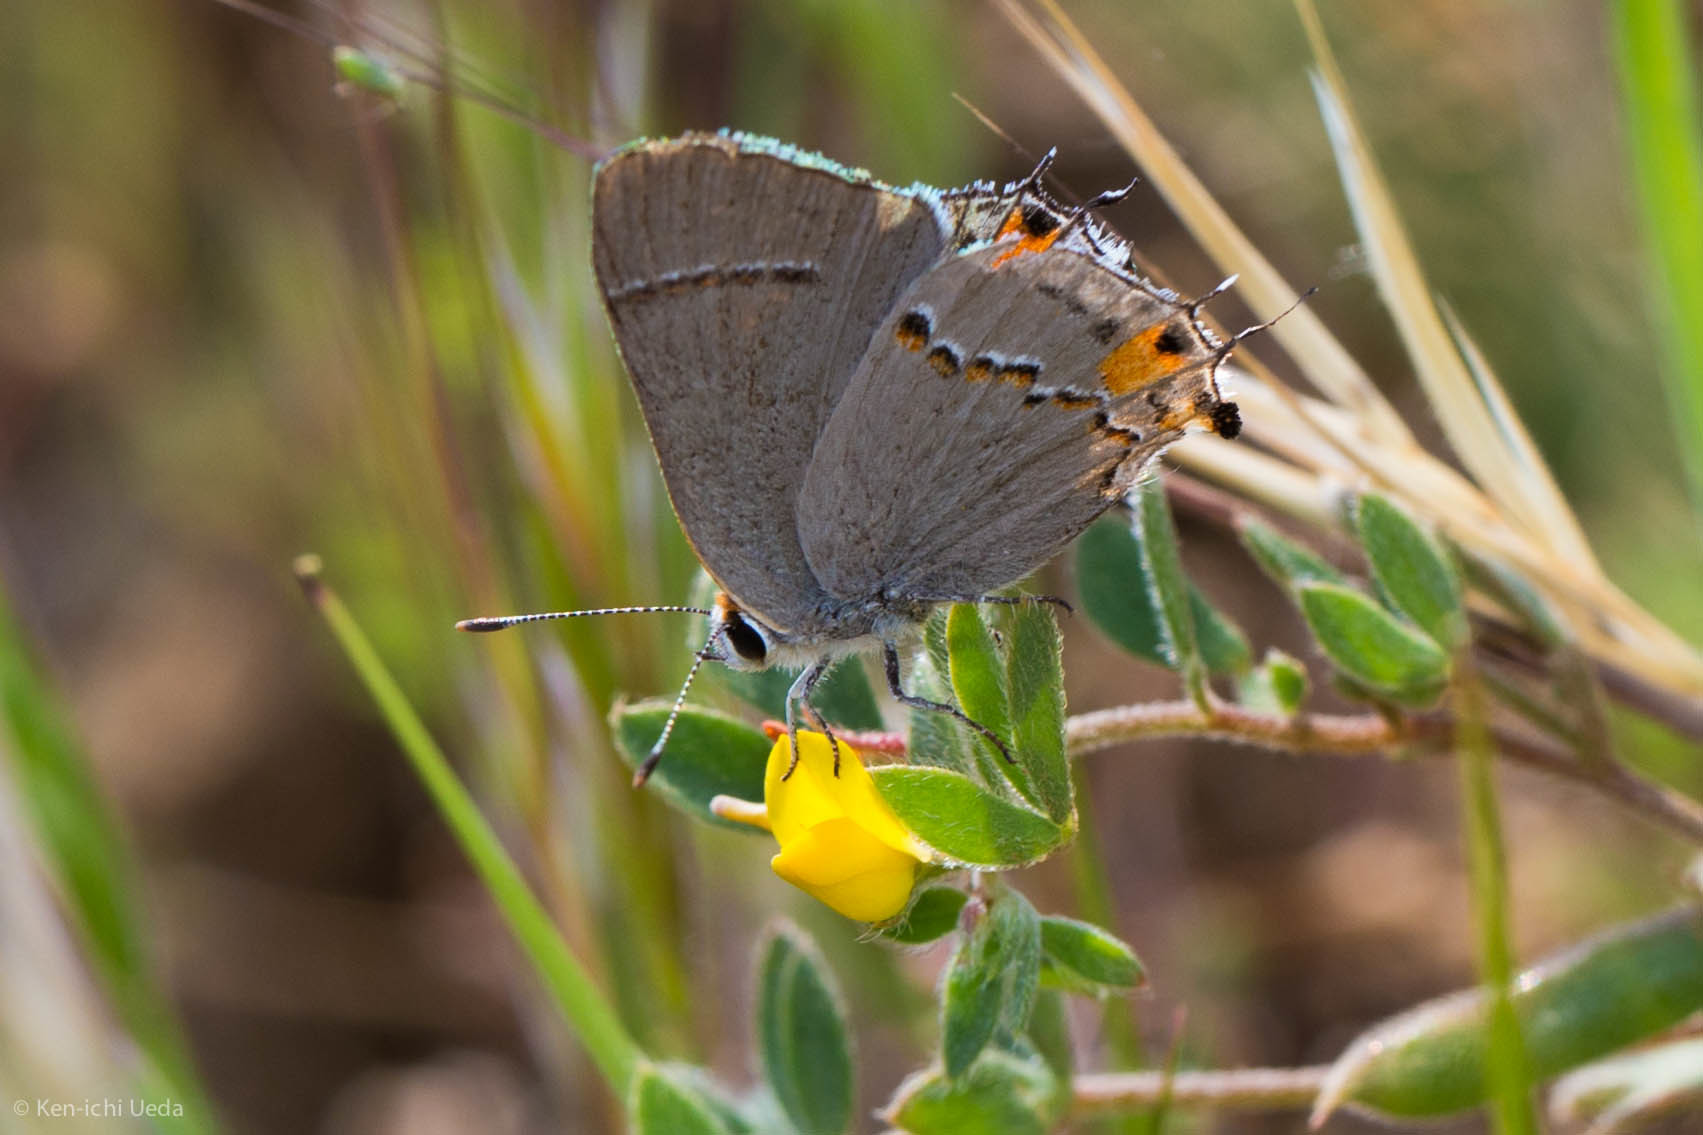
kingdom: Animalia
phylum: Arthropoda
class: Insecta
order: Lepidoptera
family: Lycaenidae
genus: Strymon
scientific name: Strymon melinus
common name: Gray hairstreak
